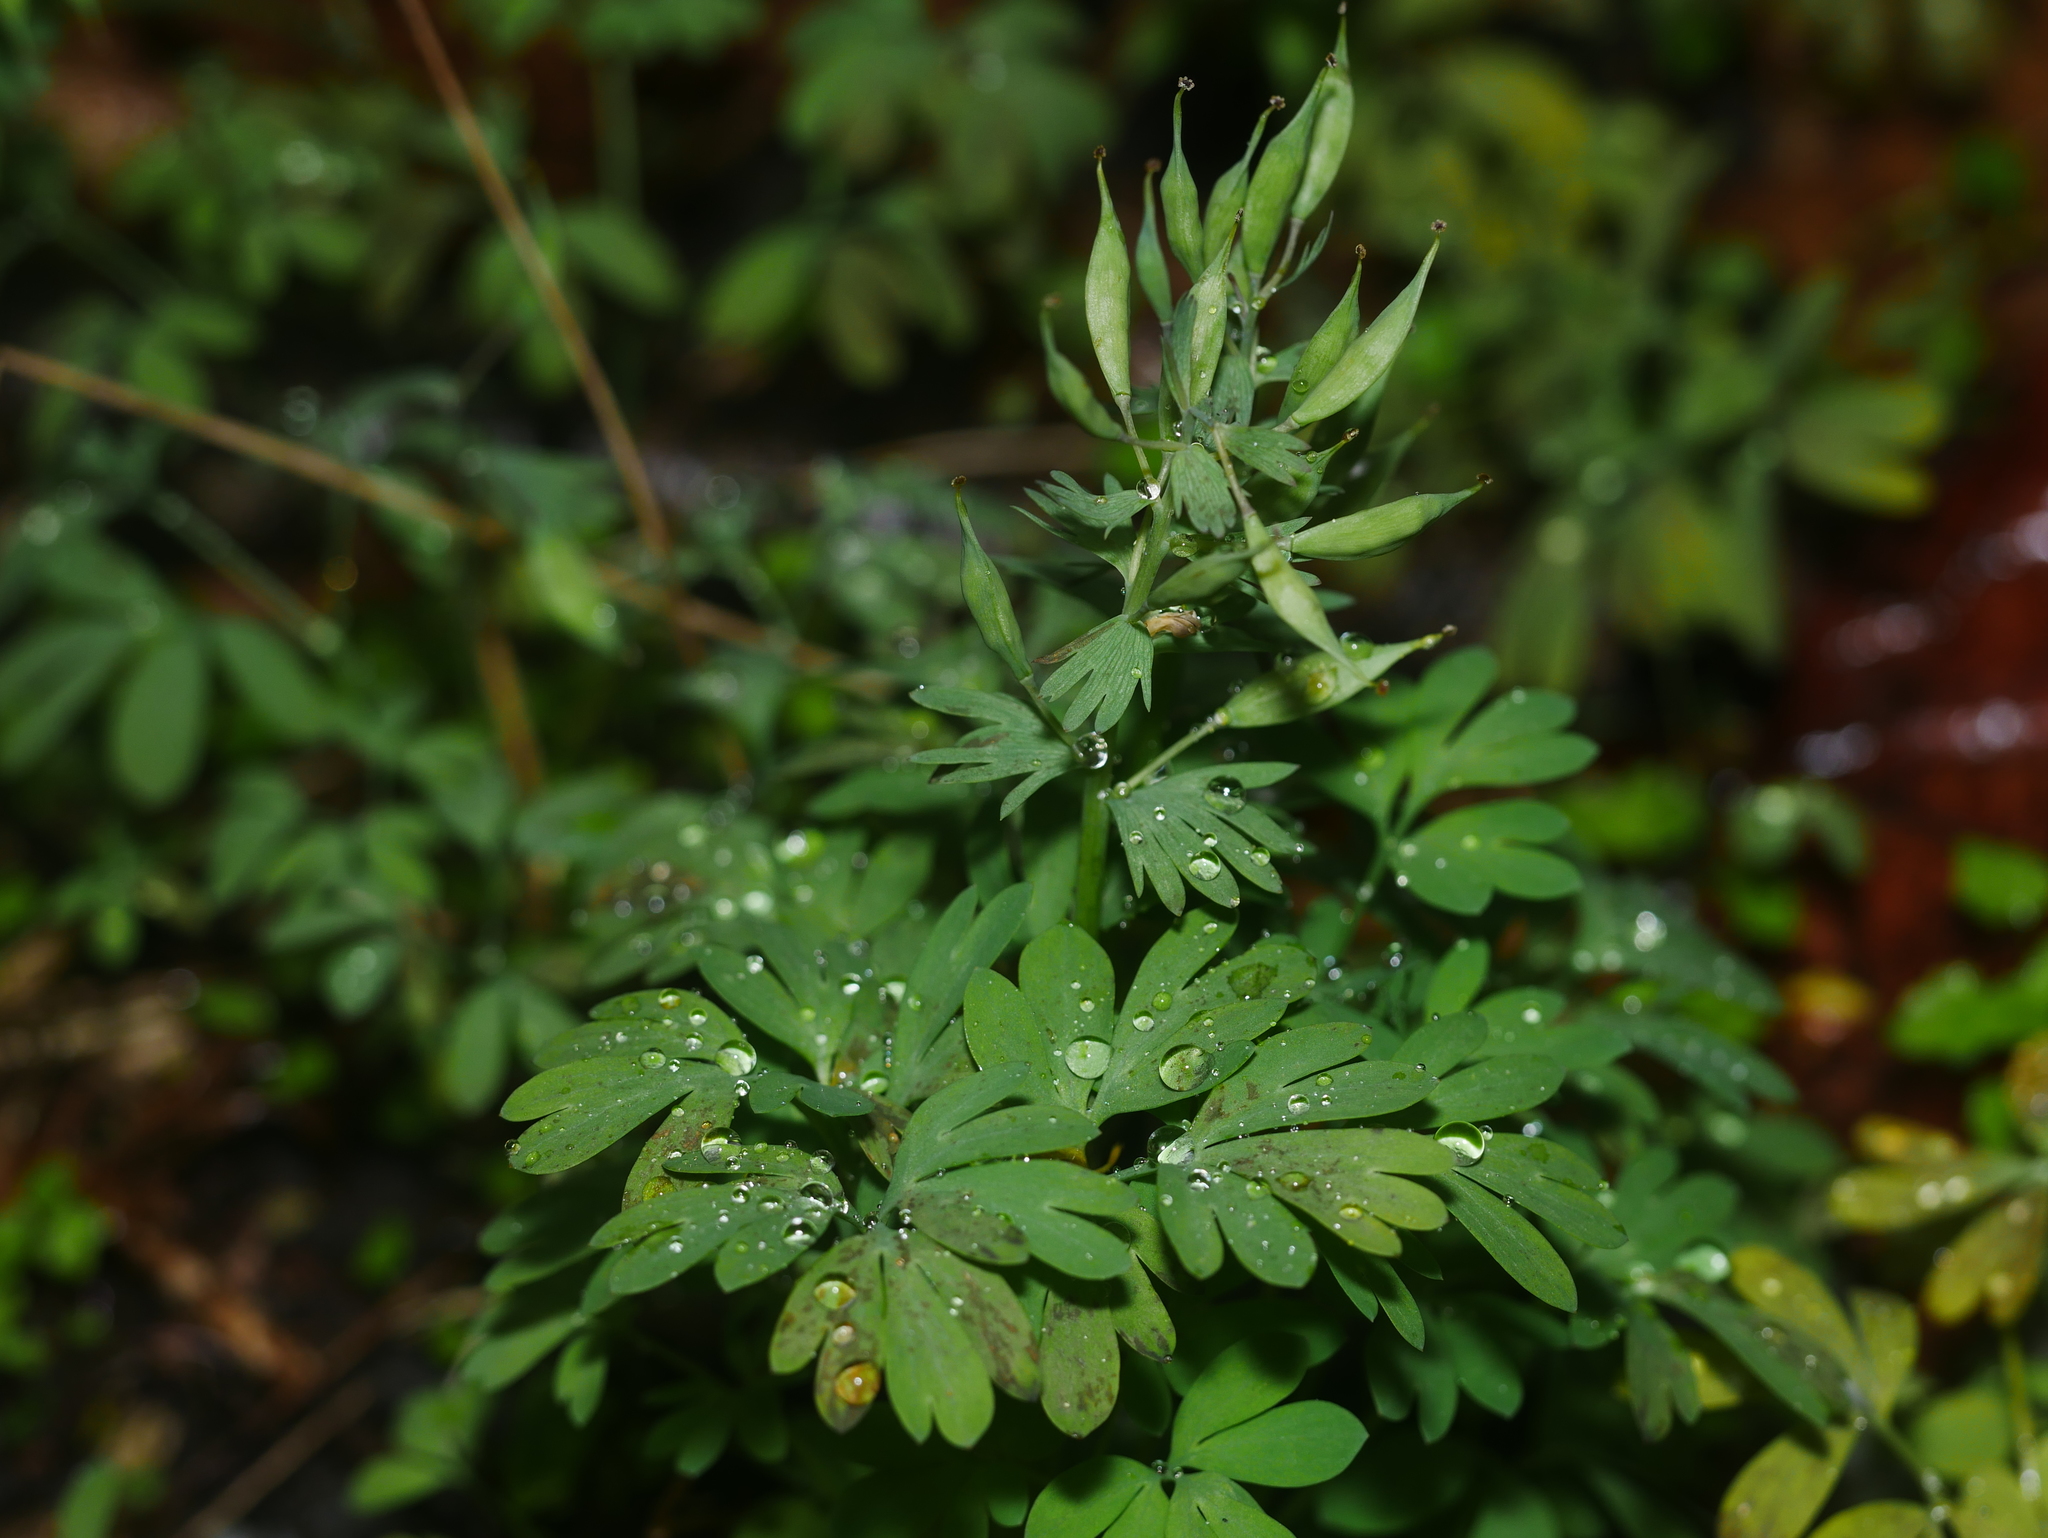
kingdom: Plantae
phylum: Tracheophyta
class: Magnoliopsida
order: Ranunculales
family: Papaveraceae
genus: Corydalis
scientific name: Corydalis solida
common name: Bird-in-a-bush
